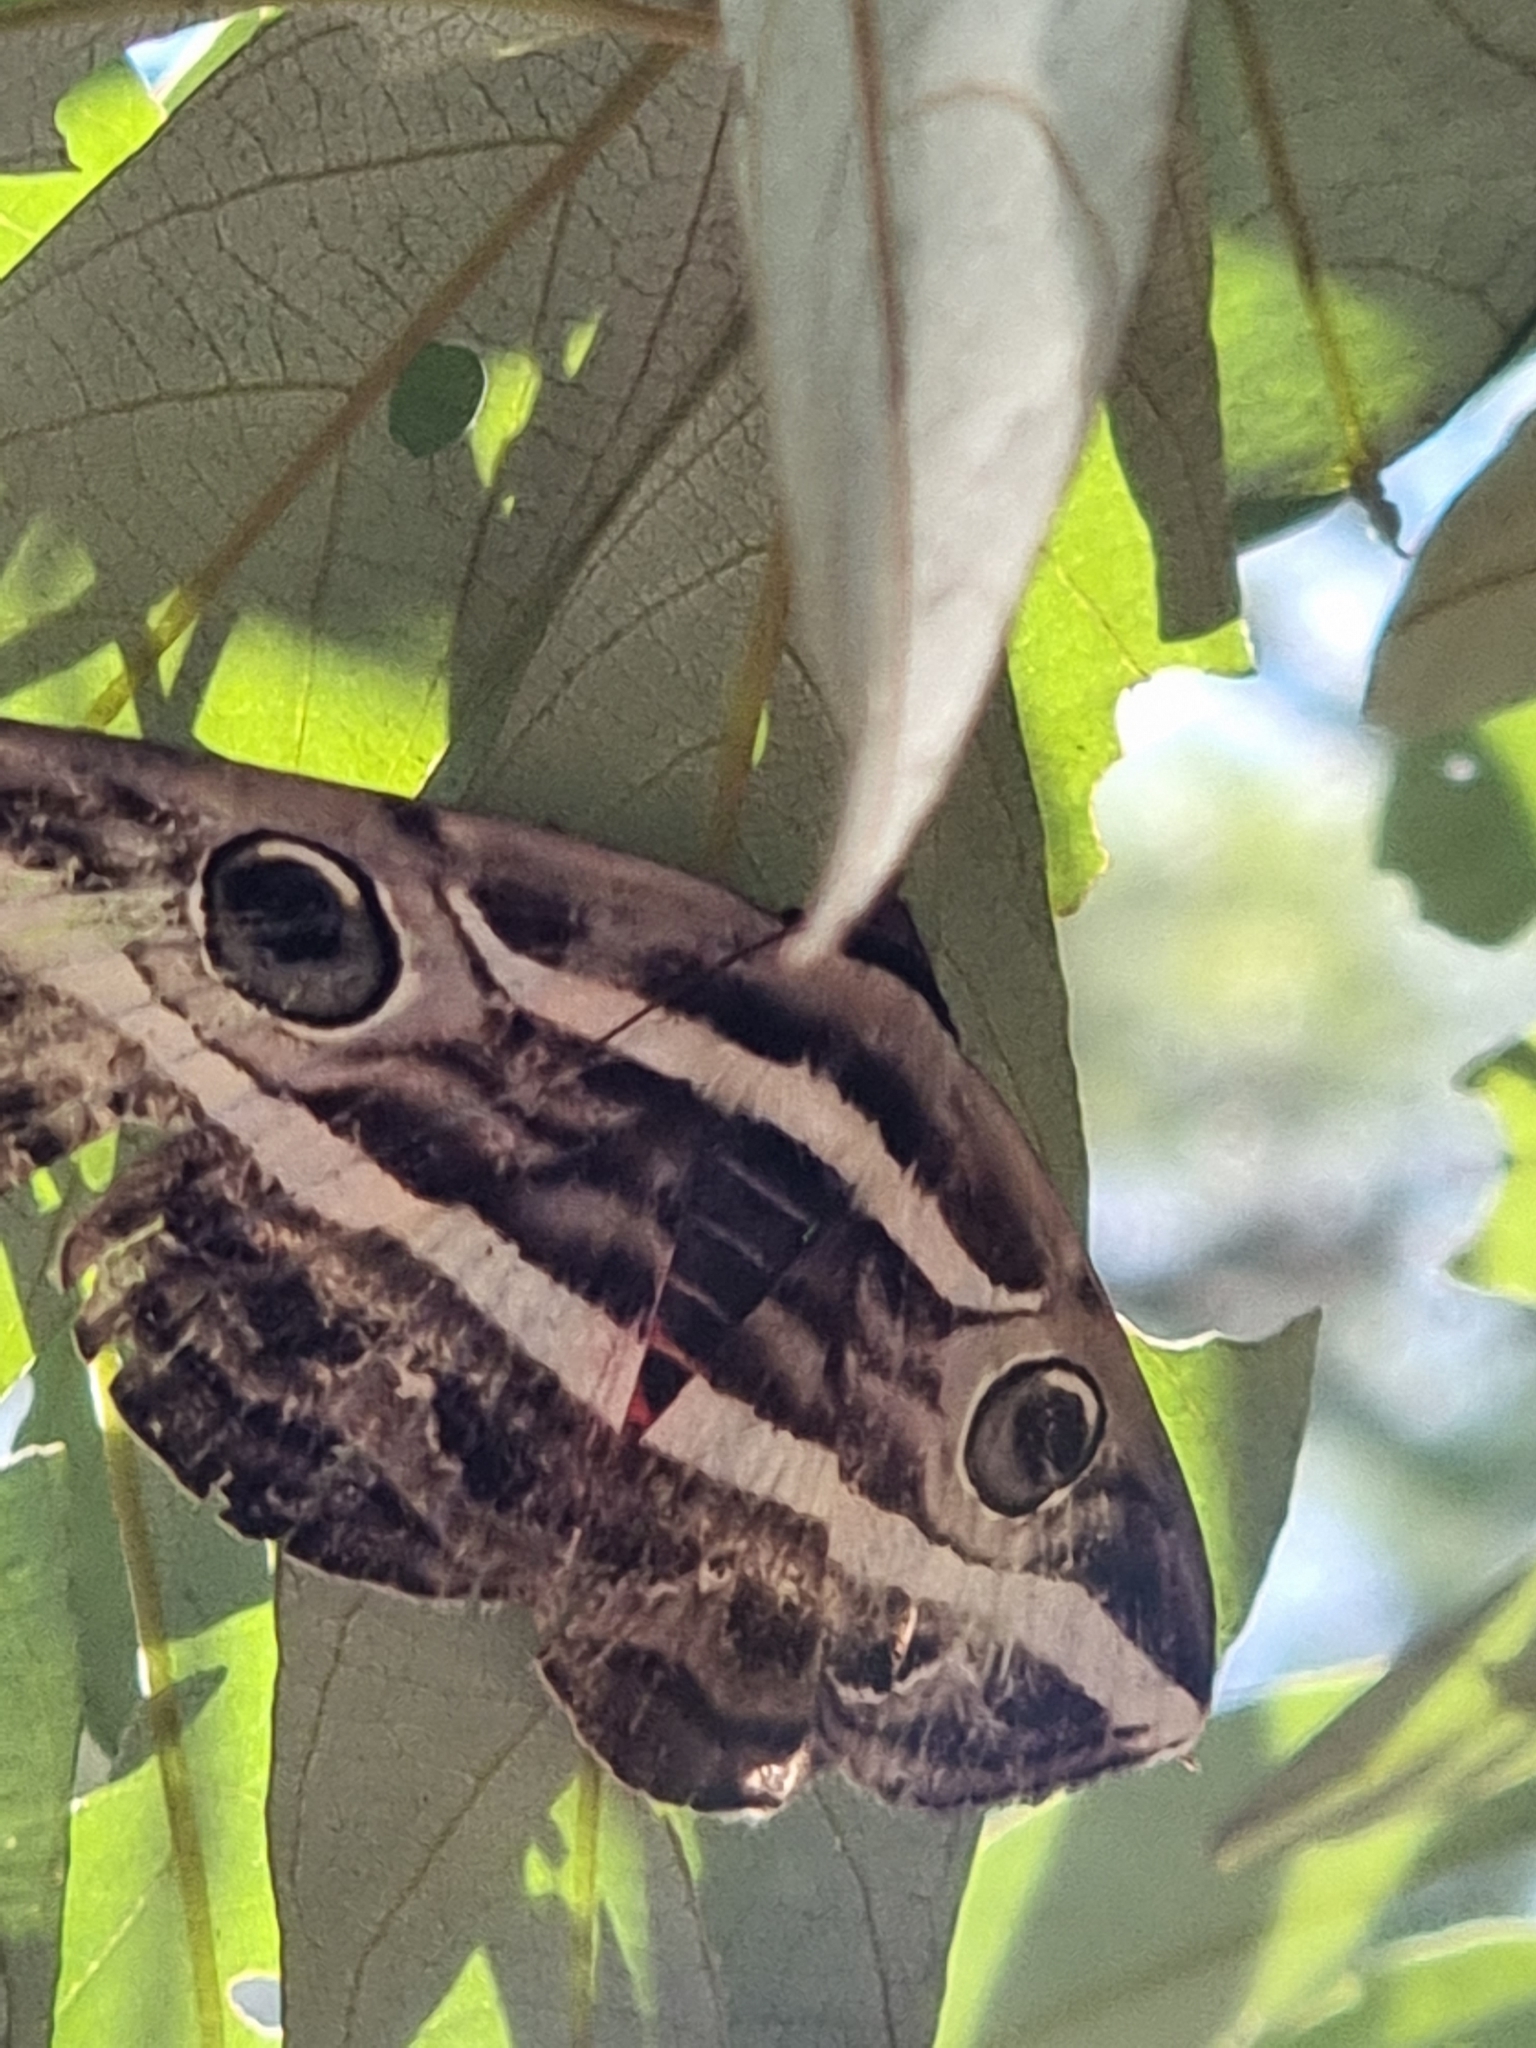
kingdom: Animalia
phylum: Arthropoda
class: Insecta
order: Lepidoptera
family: Erebidae
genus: Donuca
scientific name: Donuca rubropicta
